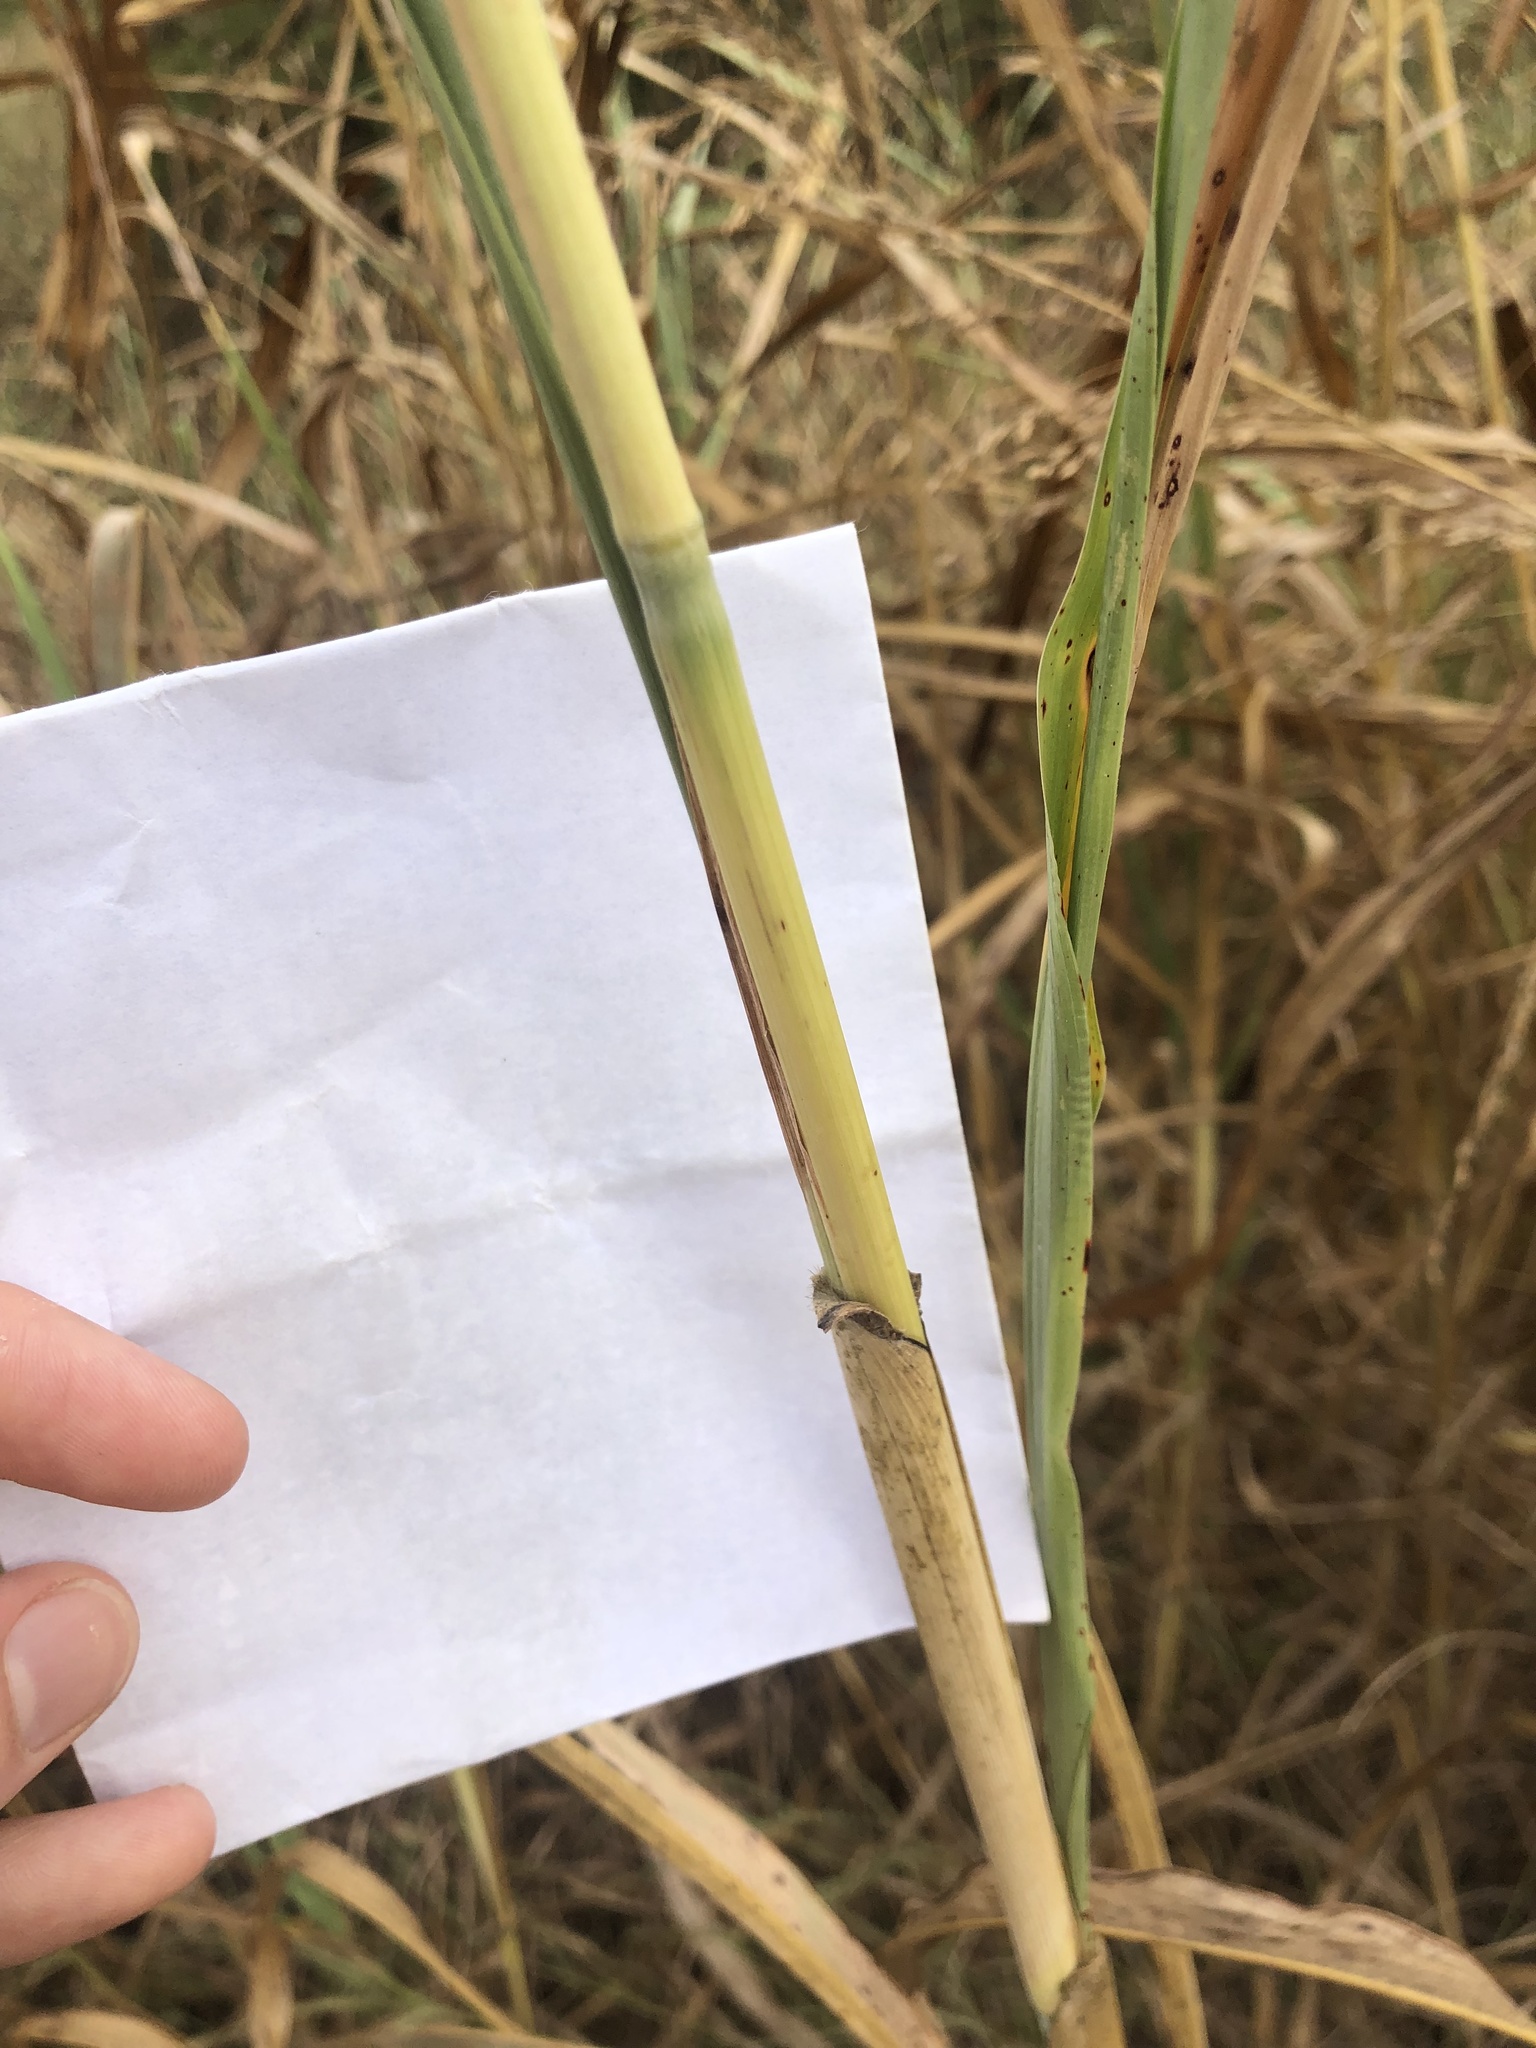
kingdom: Plantae
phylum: Tracheophyta
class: Liliopsida
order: Poales
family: Poaceae
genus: Sorghum
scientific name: Sorghum halepense
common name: Johnson-grass
